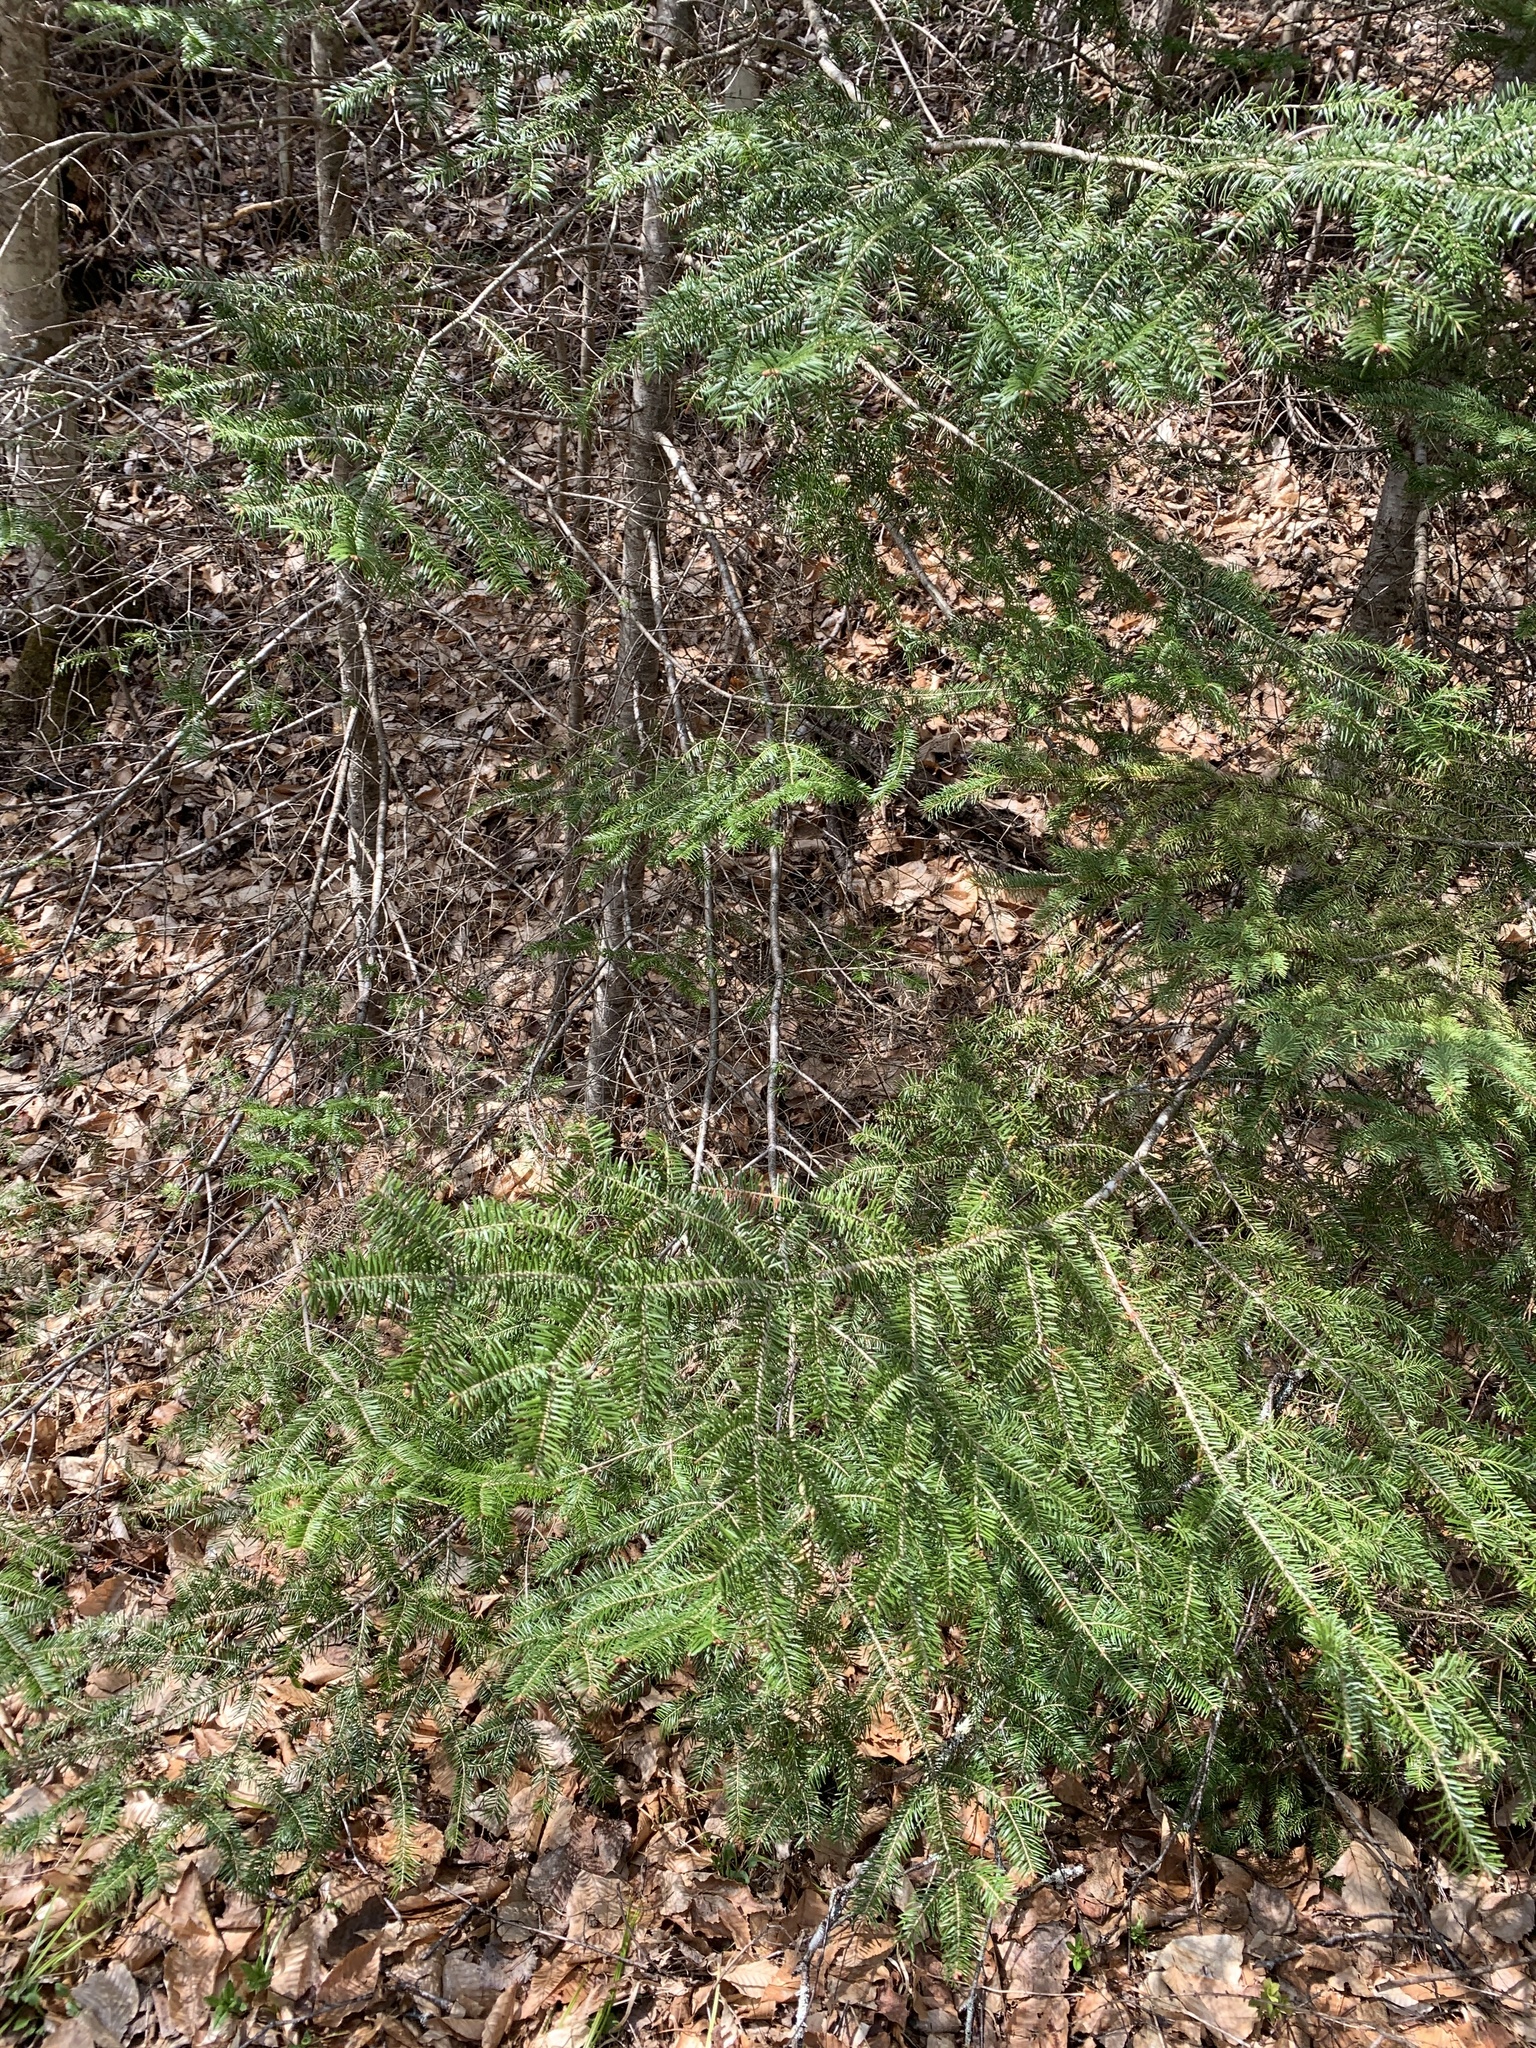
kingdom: Plantae
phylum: Tracheophyta
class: Pinopsida
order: Pinales
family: Pinaceae
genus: Abies
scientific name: Abies balsamea
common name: Balsam fir
